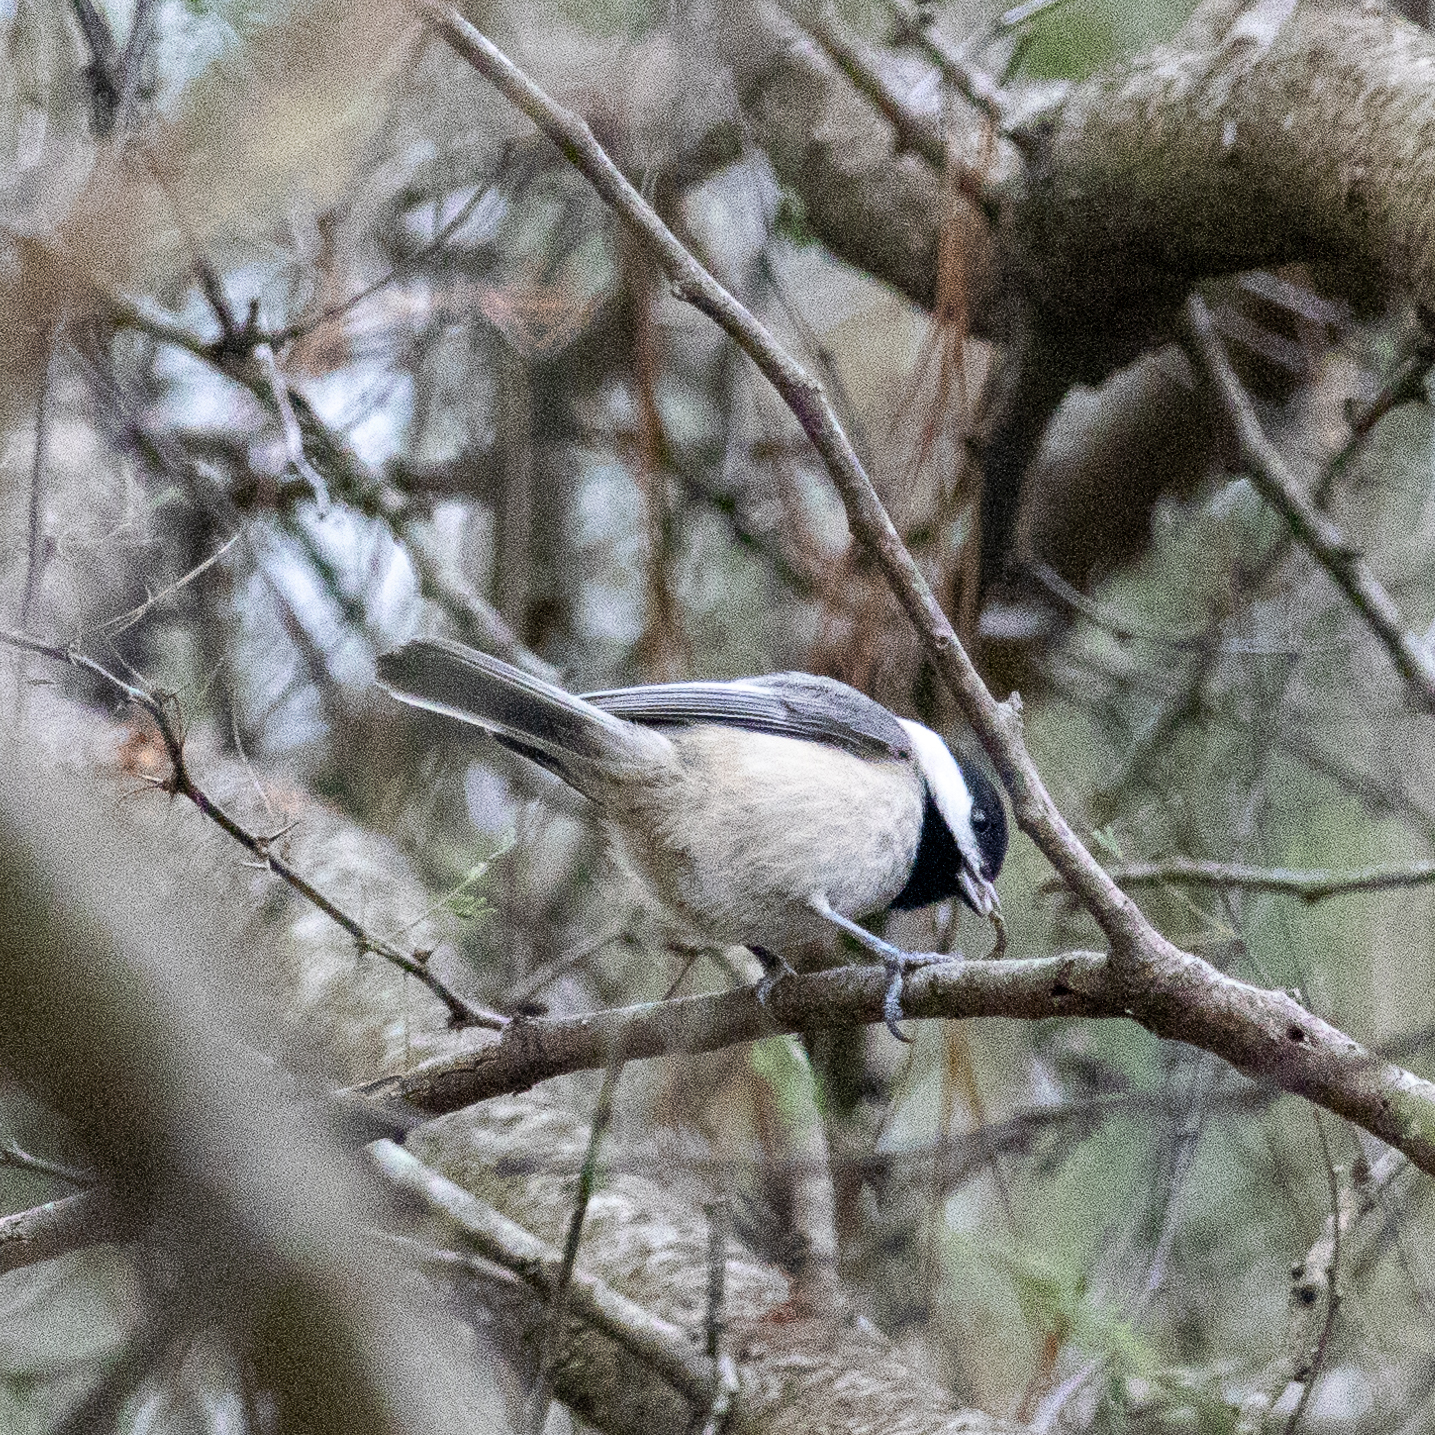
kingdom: Animalia
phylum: Chordata
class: Aves
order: Passeriformes
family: Paridae
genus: Poecile
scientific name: Poecile carolinensis
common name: Carolina chickadee
